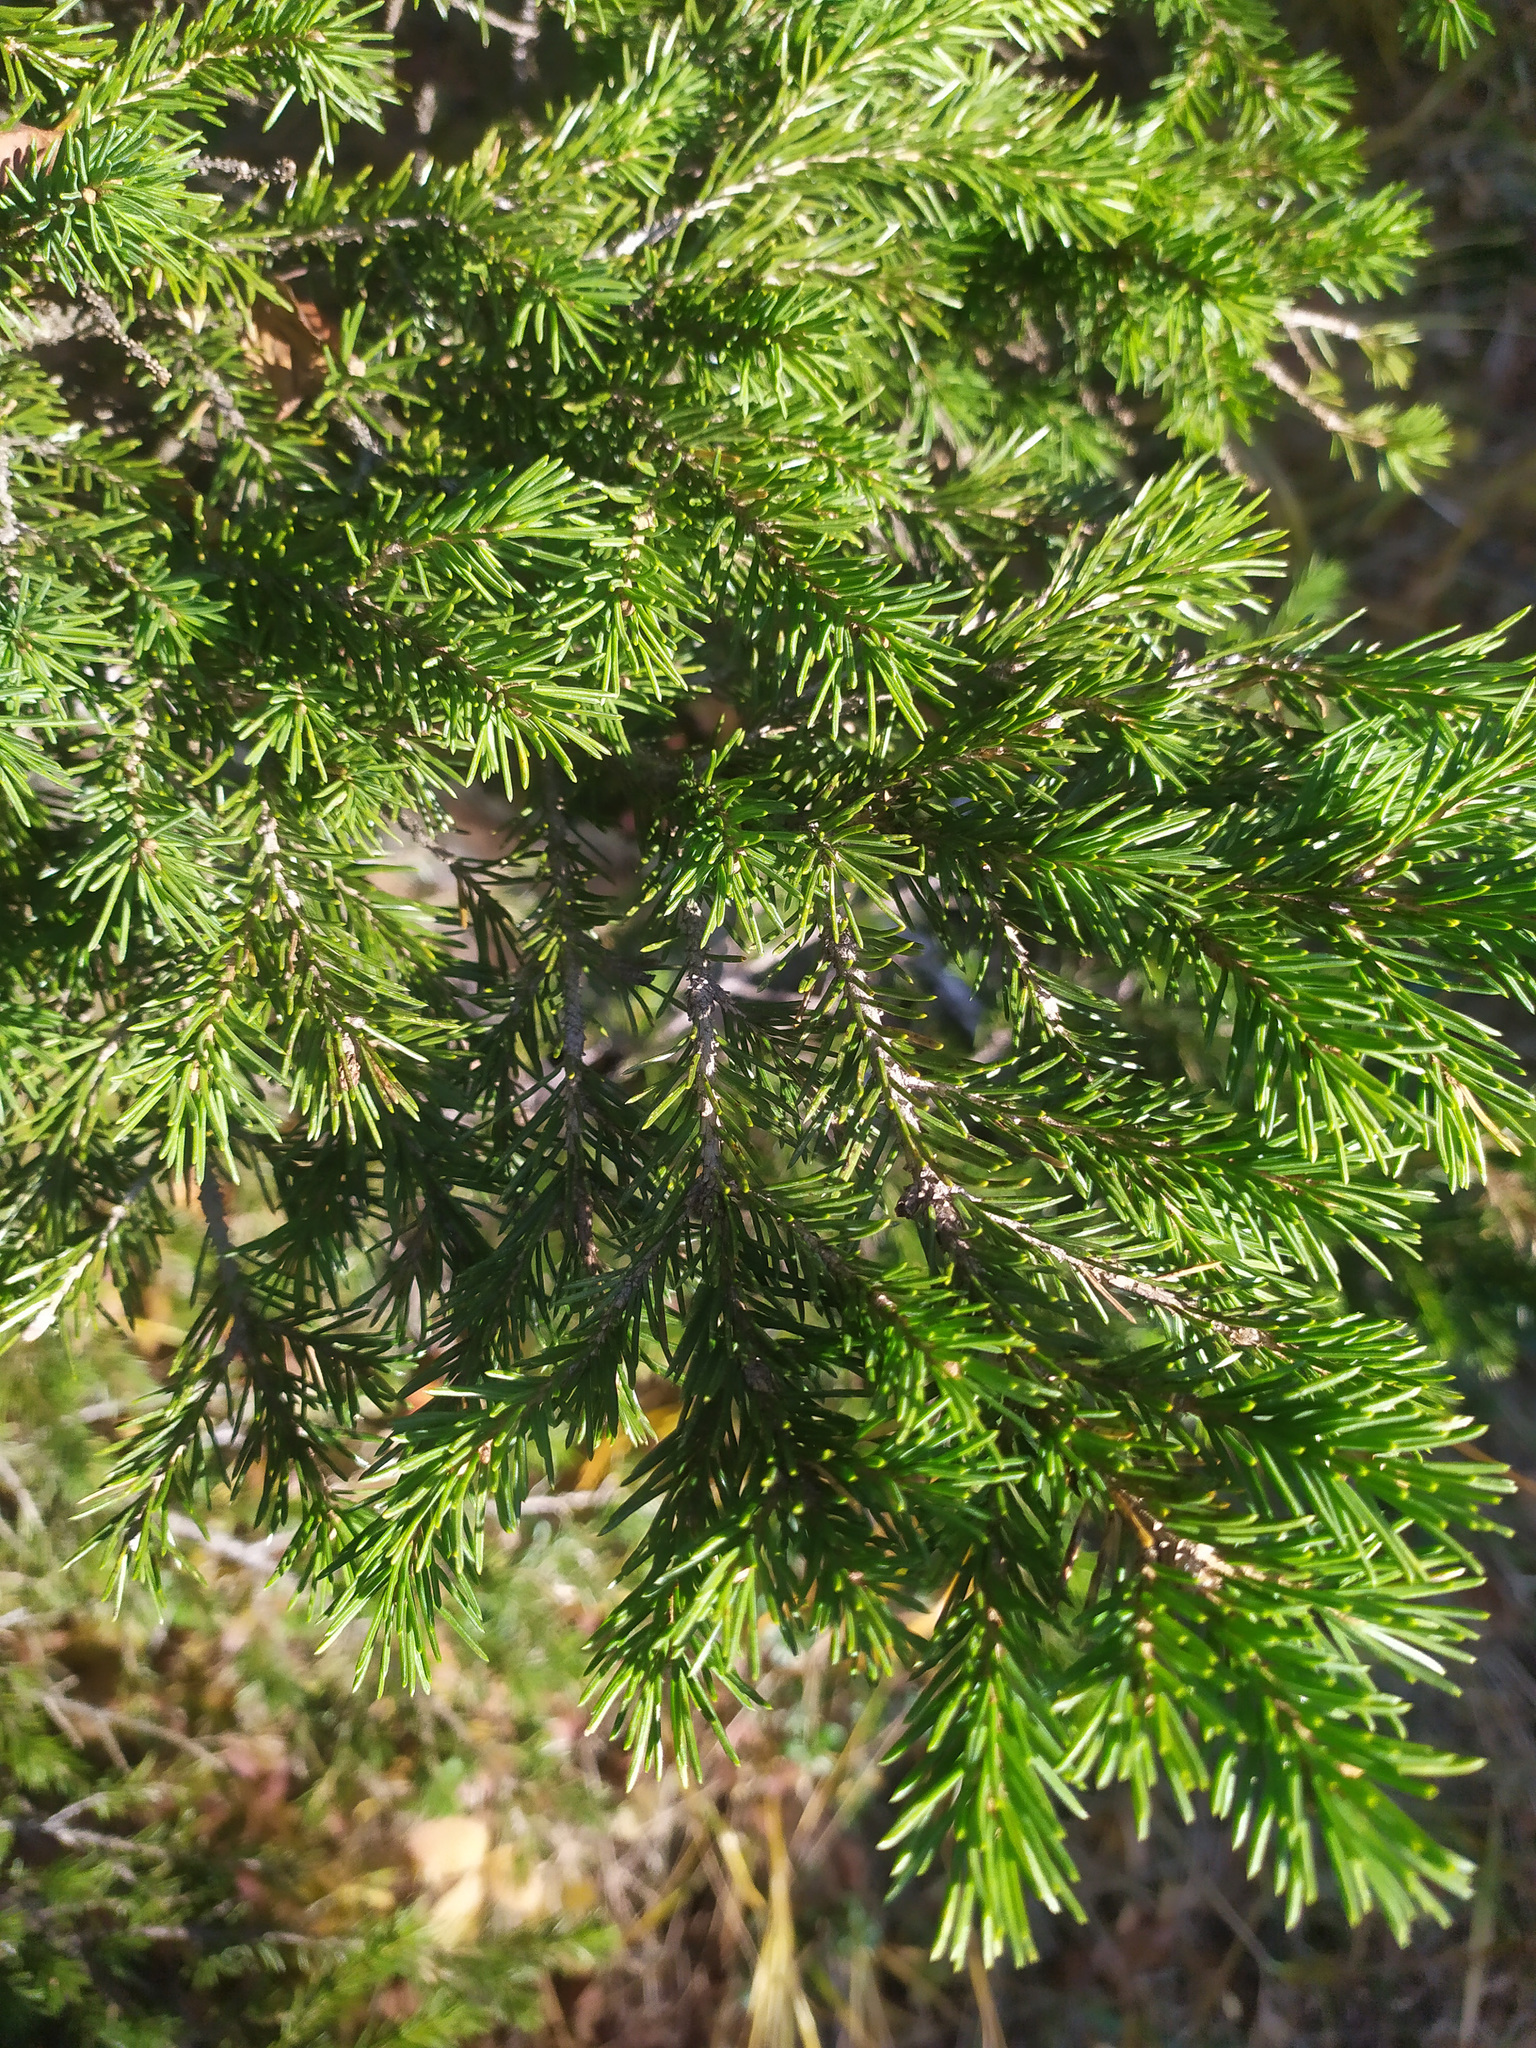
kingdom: Plantae
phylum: Tracheophyta
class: Pinopsida
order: Pinales
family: Pinaceae
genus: Picea
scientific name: Picea
